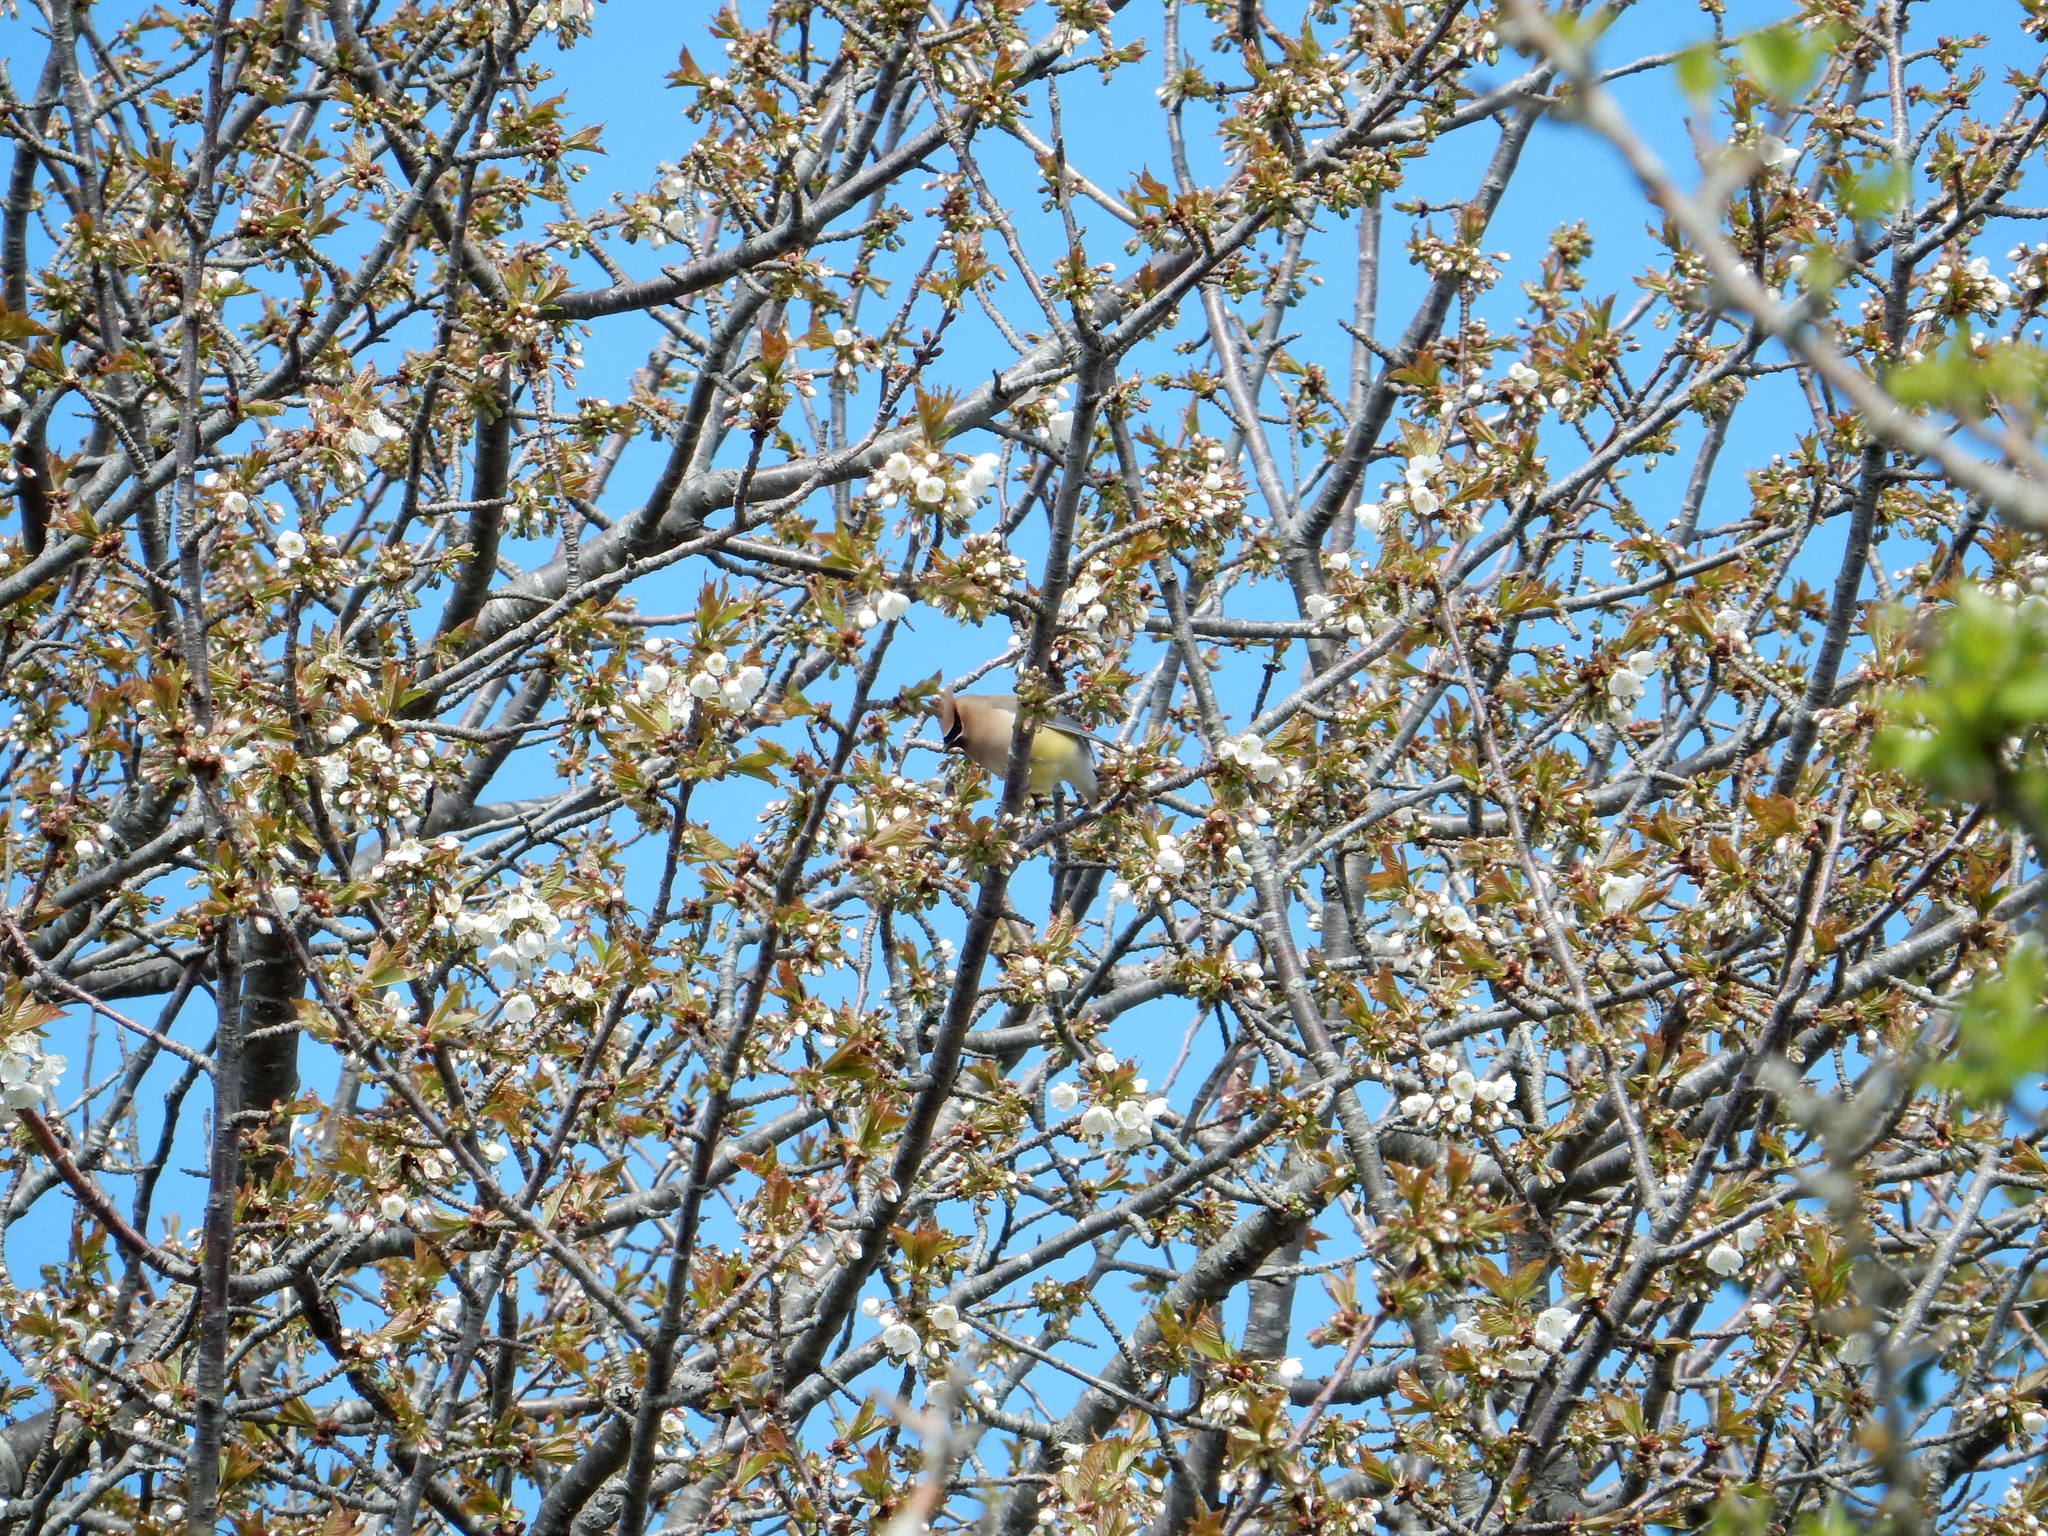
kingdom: Animalia
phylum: Chordata
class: Aves
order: Passeriformes
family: Bombycillidae
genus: Bombycilla
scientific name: Bombycilla cedrorum
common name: Cedar waxwing
